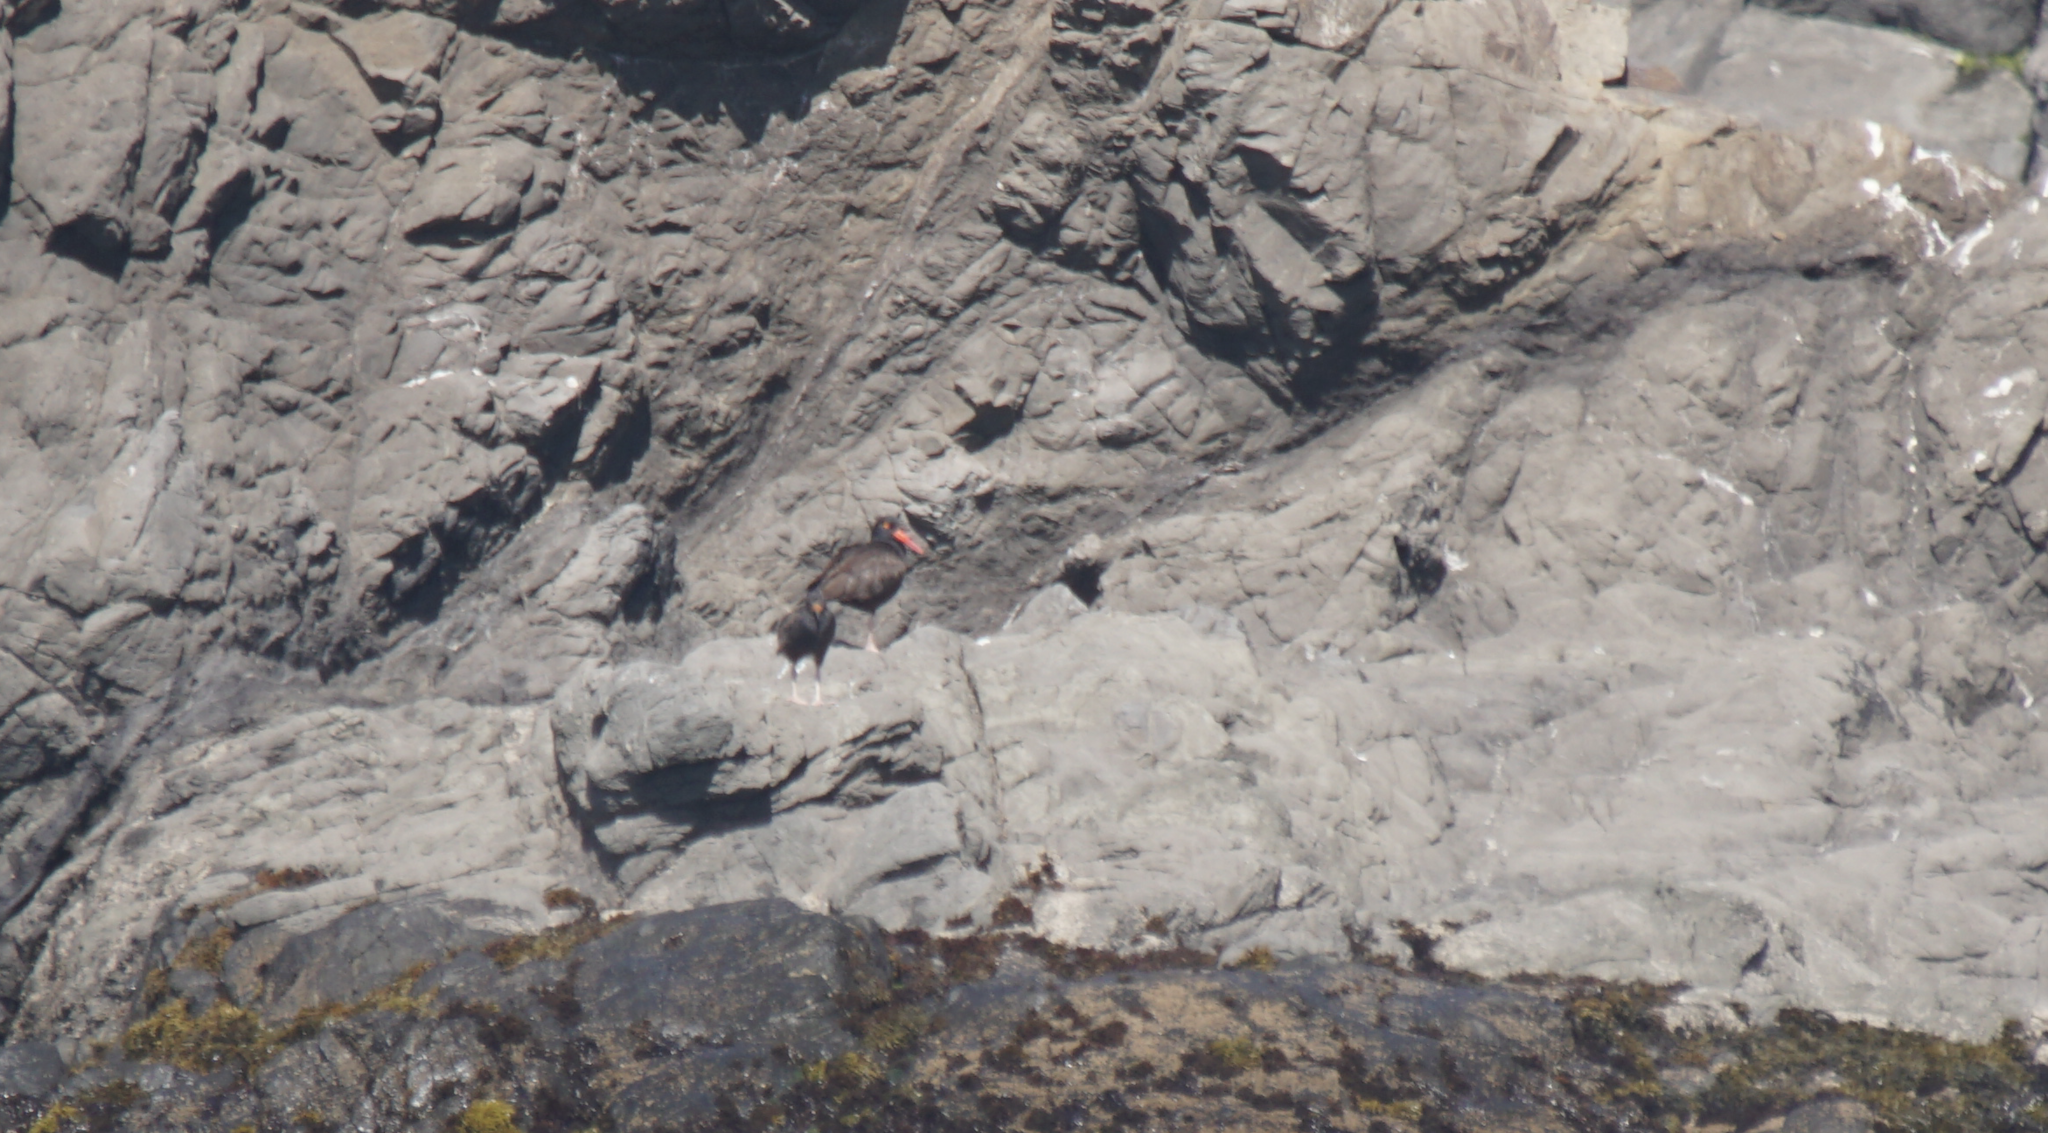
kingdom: Animalia
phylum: Chordata
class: Aves
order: Charadriiformes
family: Haematopodidae
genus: Haematopus
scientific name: Haematopus bachmani
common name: Black oystercatcher
